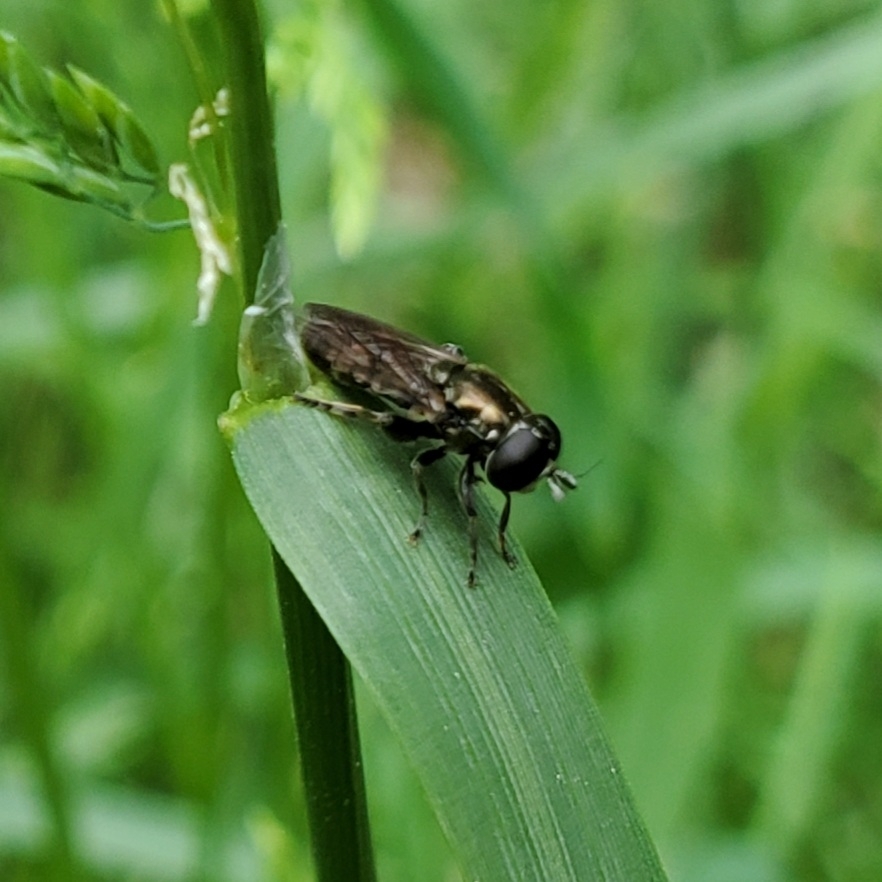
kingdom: Animalia
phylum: Arthropoda
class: Insecta
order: Diptera
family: Syrphidae
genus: Eumerus
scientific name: Eumerus
